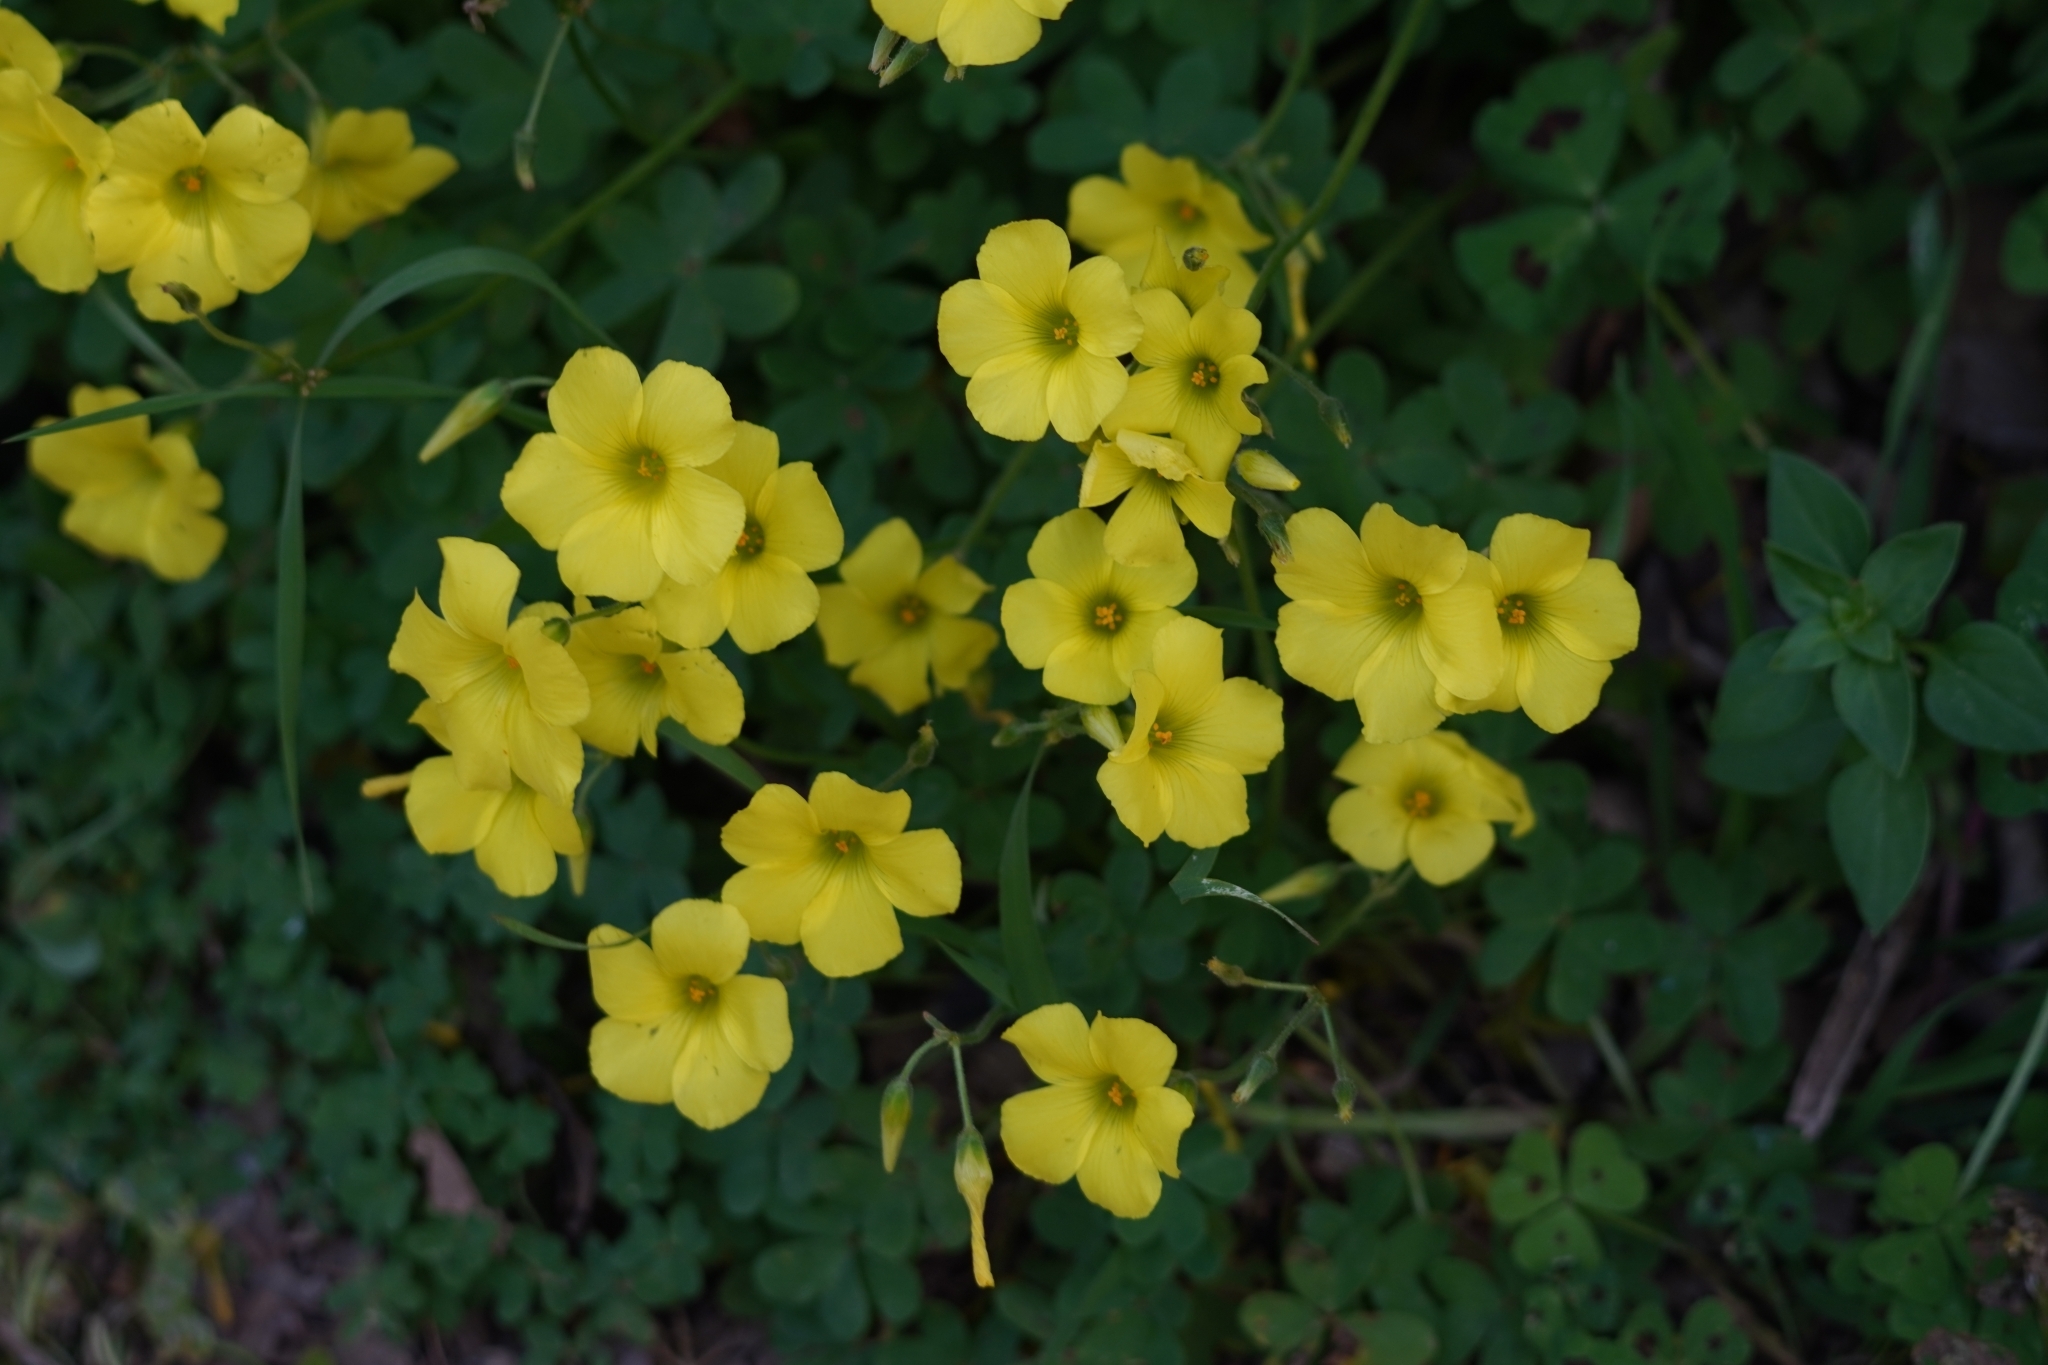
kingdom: Plantae
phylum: Tracheophyta
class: Magnoliopsida
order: Oxalidales
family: Oxalidaceae
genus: Oxalis
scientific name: Oxalis pes-caprae
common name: Bermuda-buttercup
